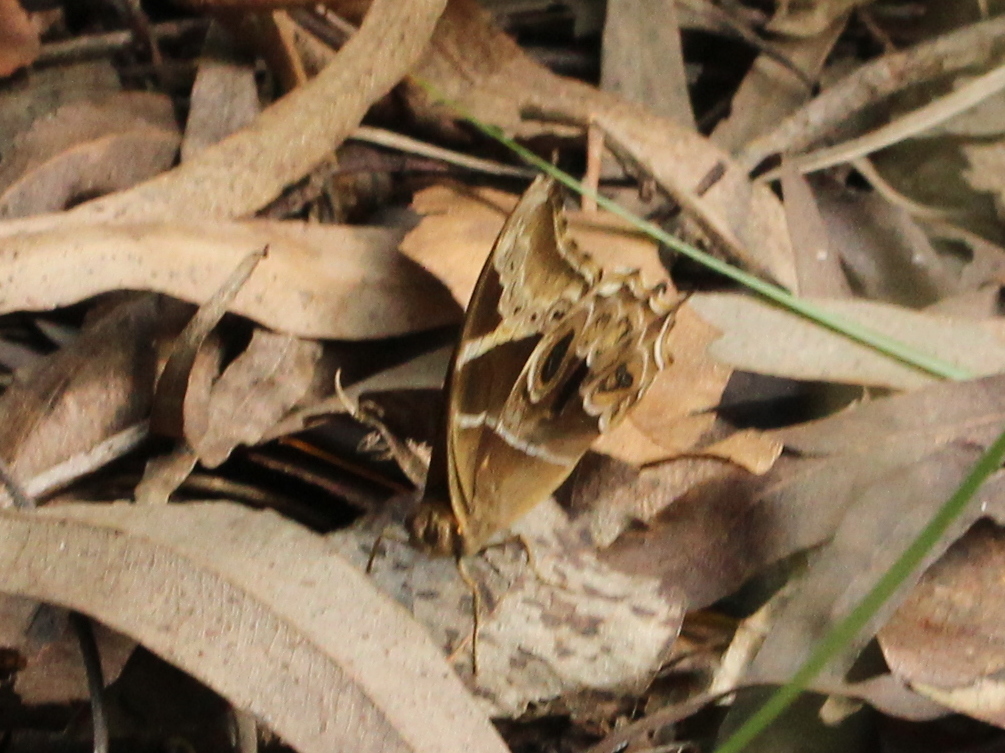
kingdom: Animalia
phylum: Arthropoda
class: Insecta
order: Lepidoptera
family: Nymphalidae
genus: Lethe
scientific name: Lethe europa
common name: Bamboo treebrown
